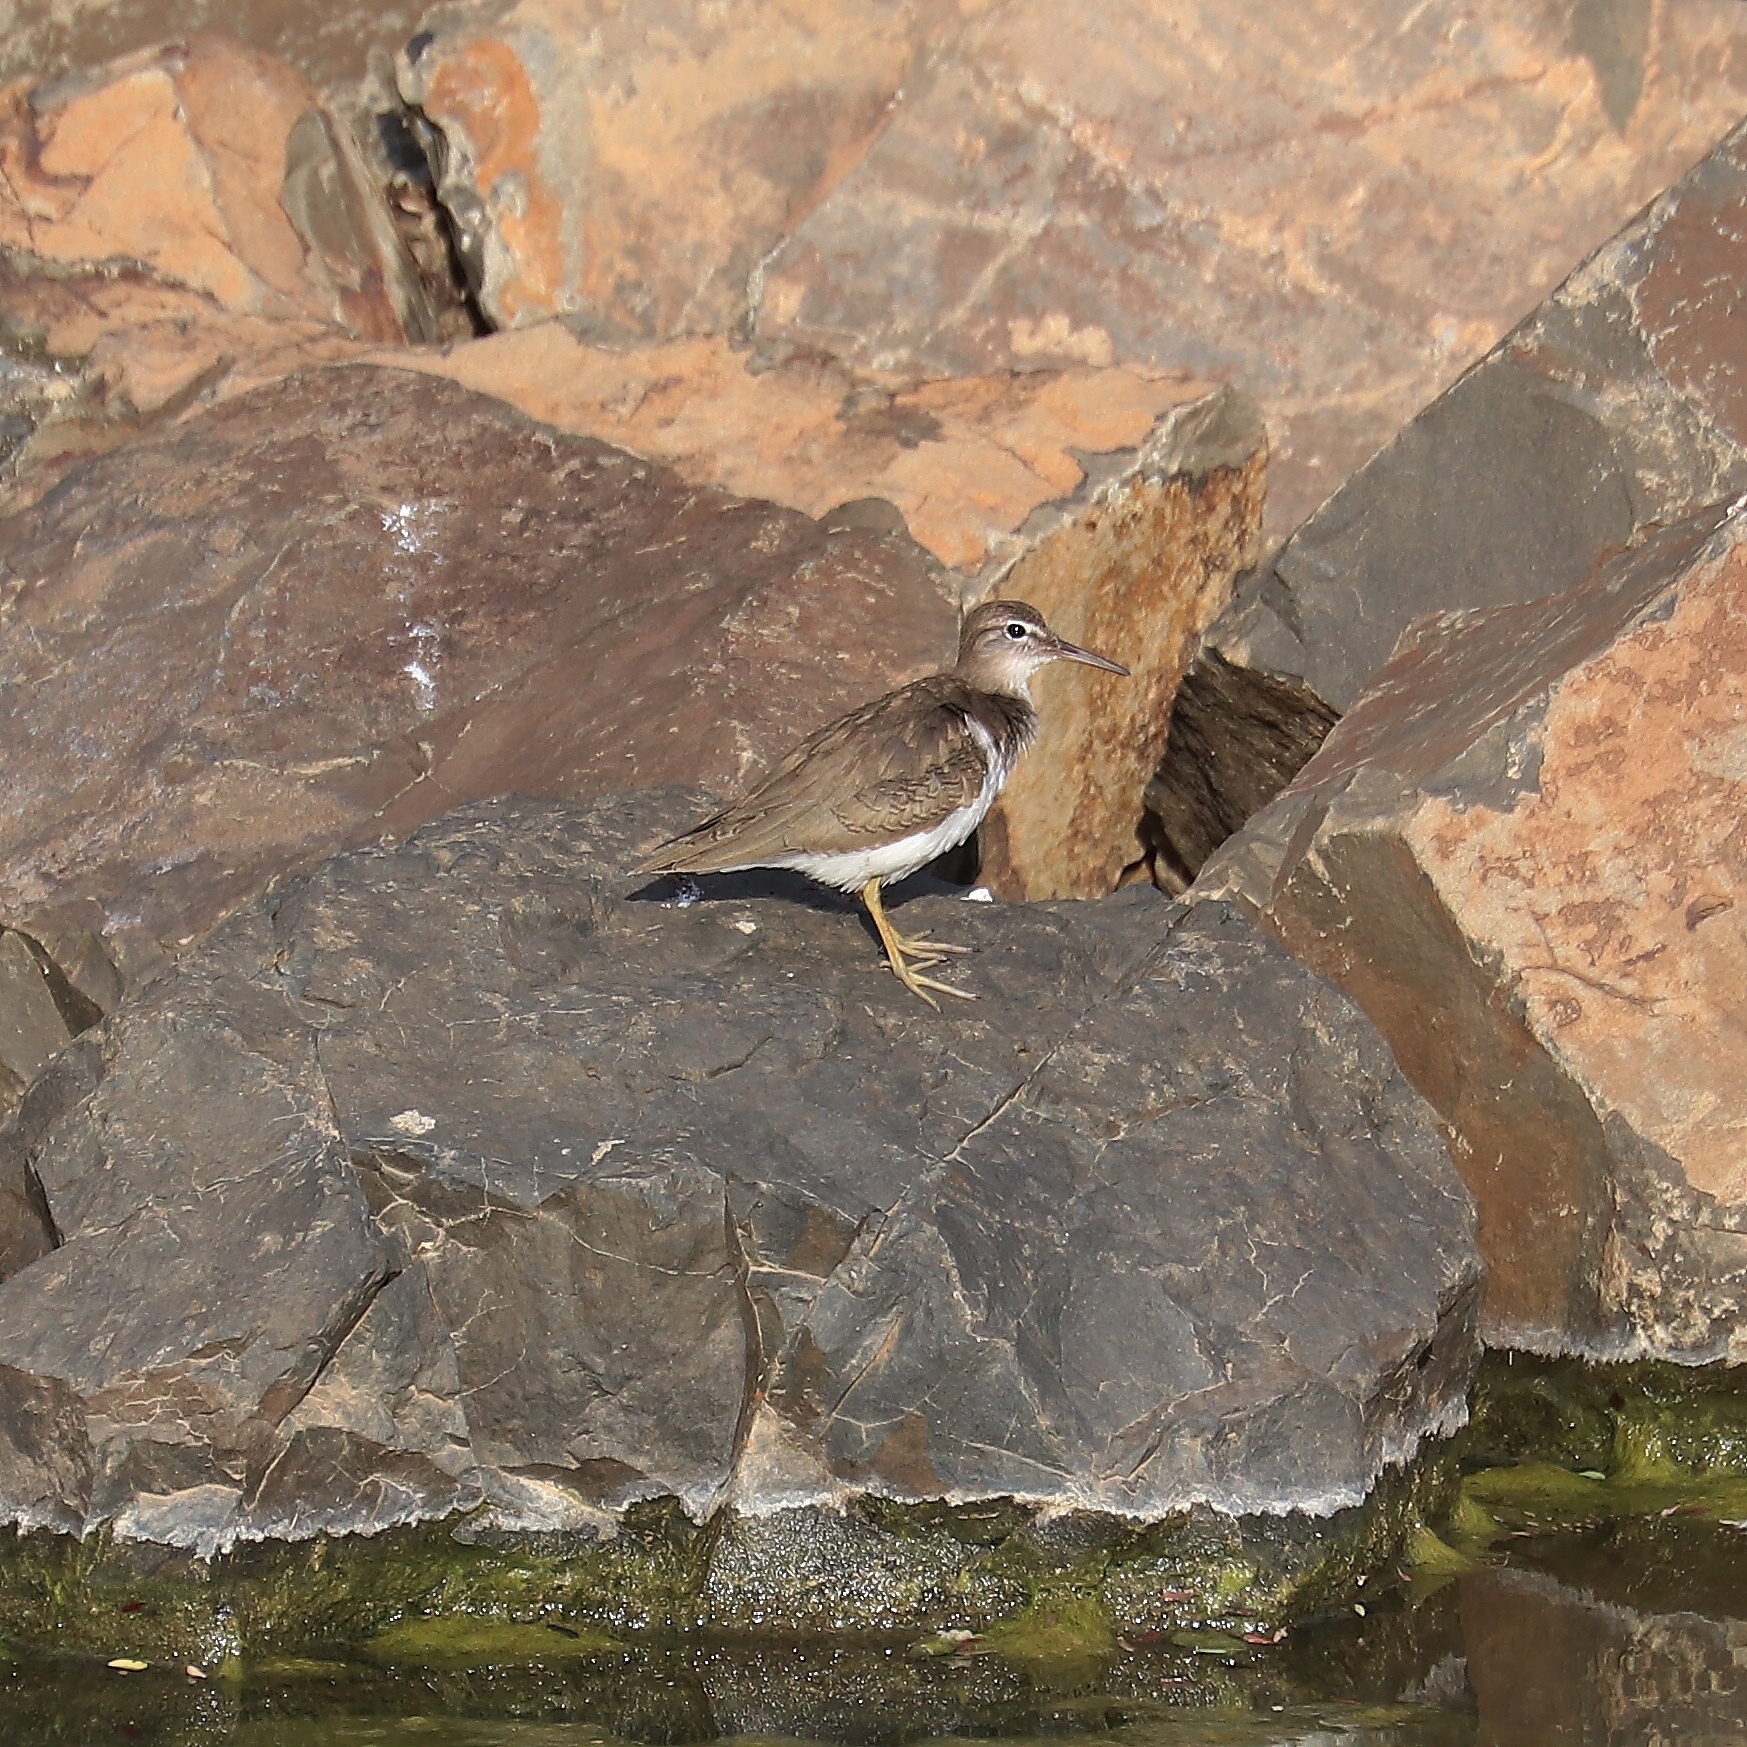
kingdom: Animalia
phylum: Chordata
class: Aves
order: Charadriiformes
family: Scolopacidae
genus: Actitis
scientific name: Actitis macularius
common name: Spotted sandpiper
